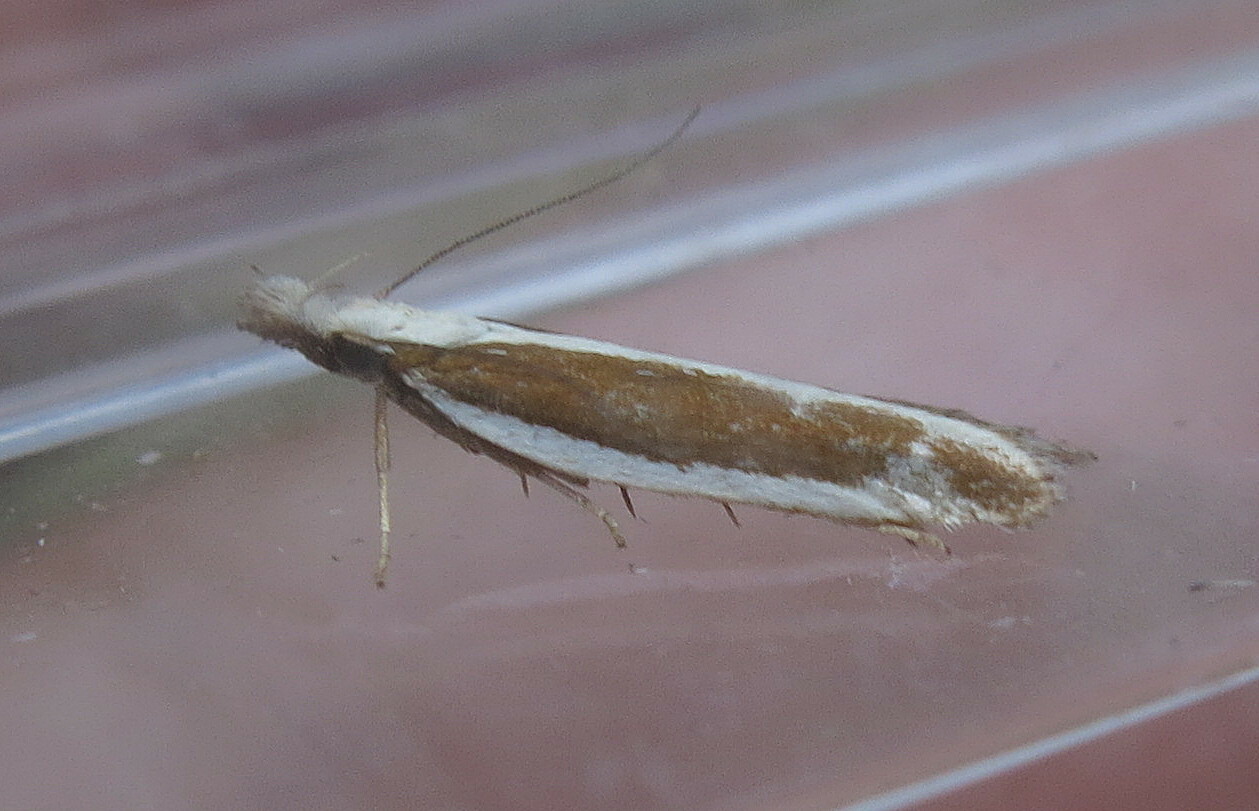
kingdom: Animalia
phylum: Arthropoda
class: Insecta
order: Lepidoptera
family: Gelechiidae
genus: Dichomeris
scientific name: Dichomeris marginella
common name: Juniper webworm
